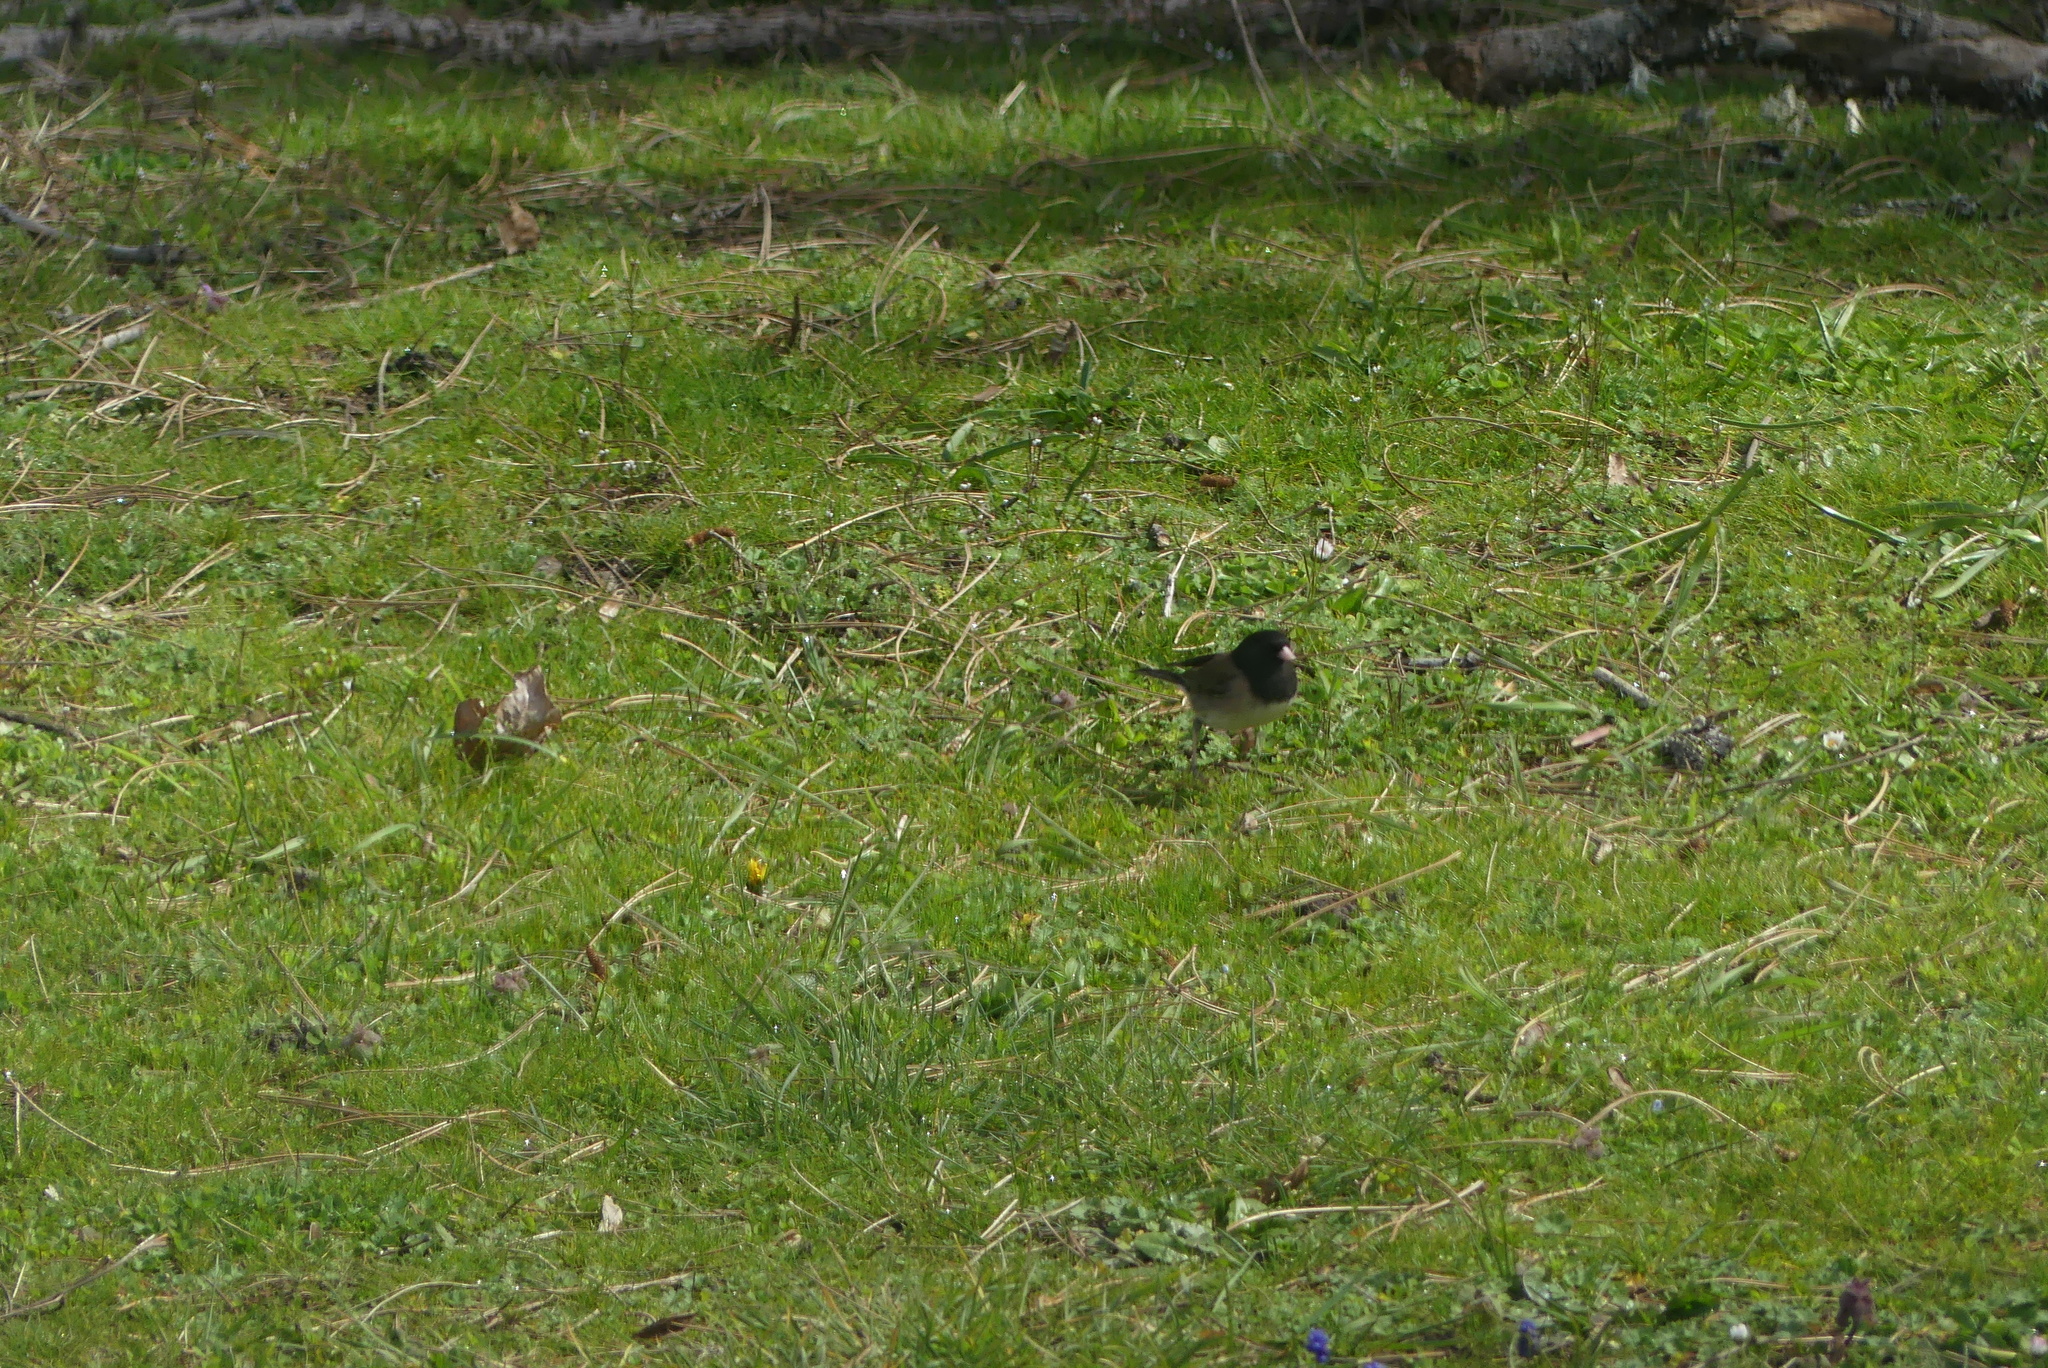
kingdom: Animalia
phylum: Chordata
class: Aves
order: Passeriformes
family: Passerellidae
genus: Junco
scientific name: Junco hyemalis
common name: Dark-eyed junco
